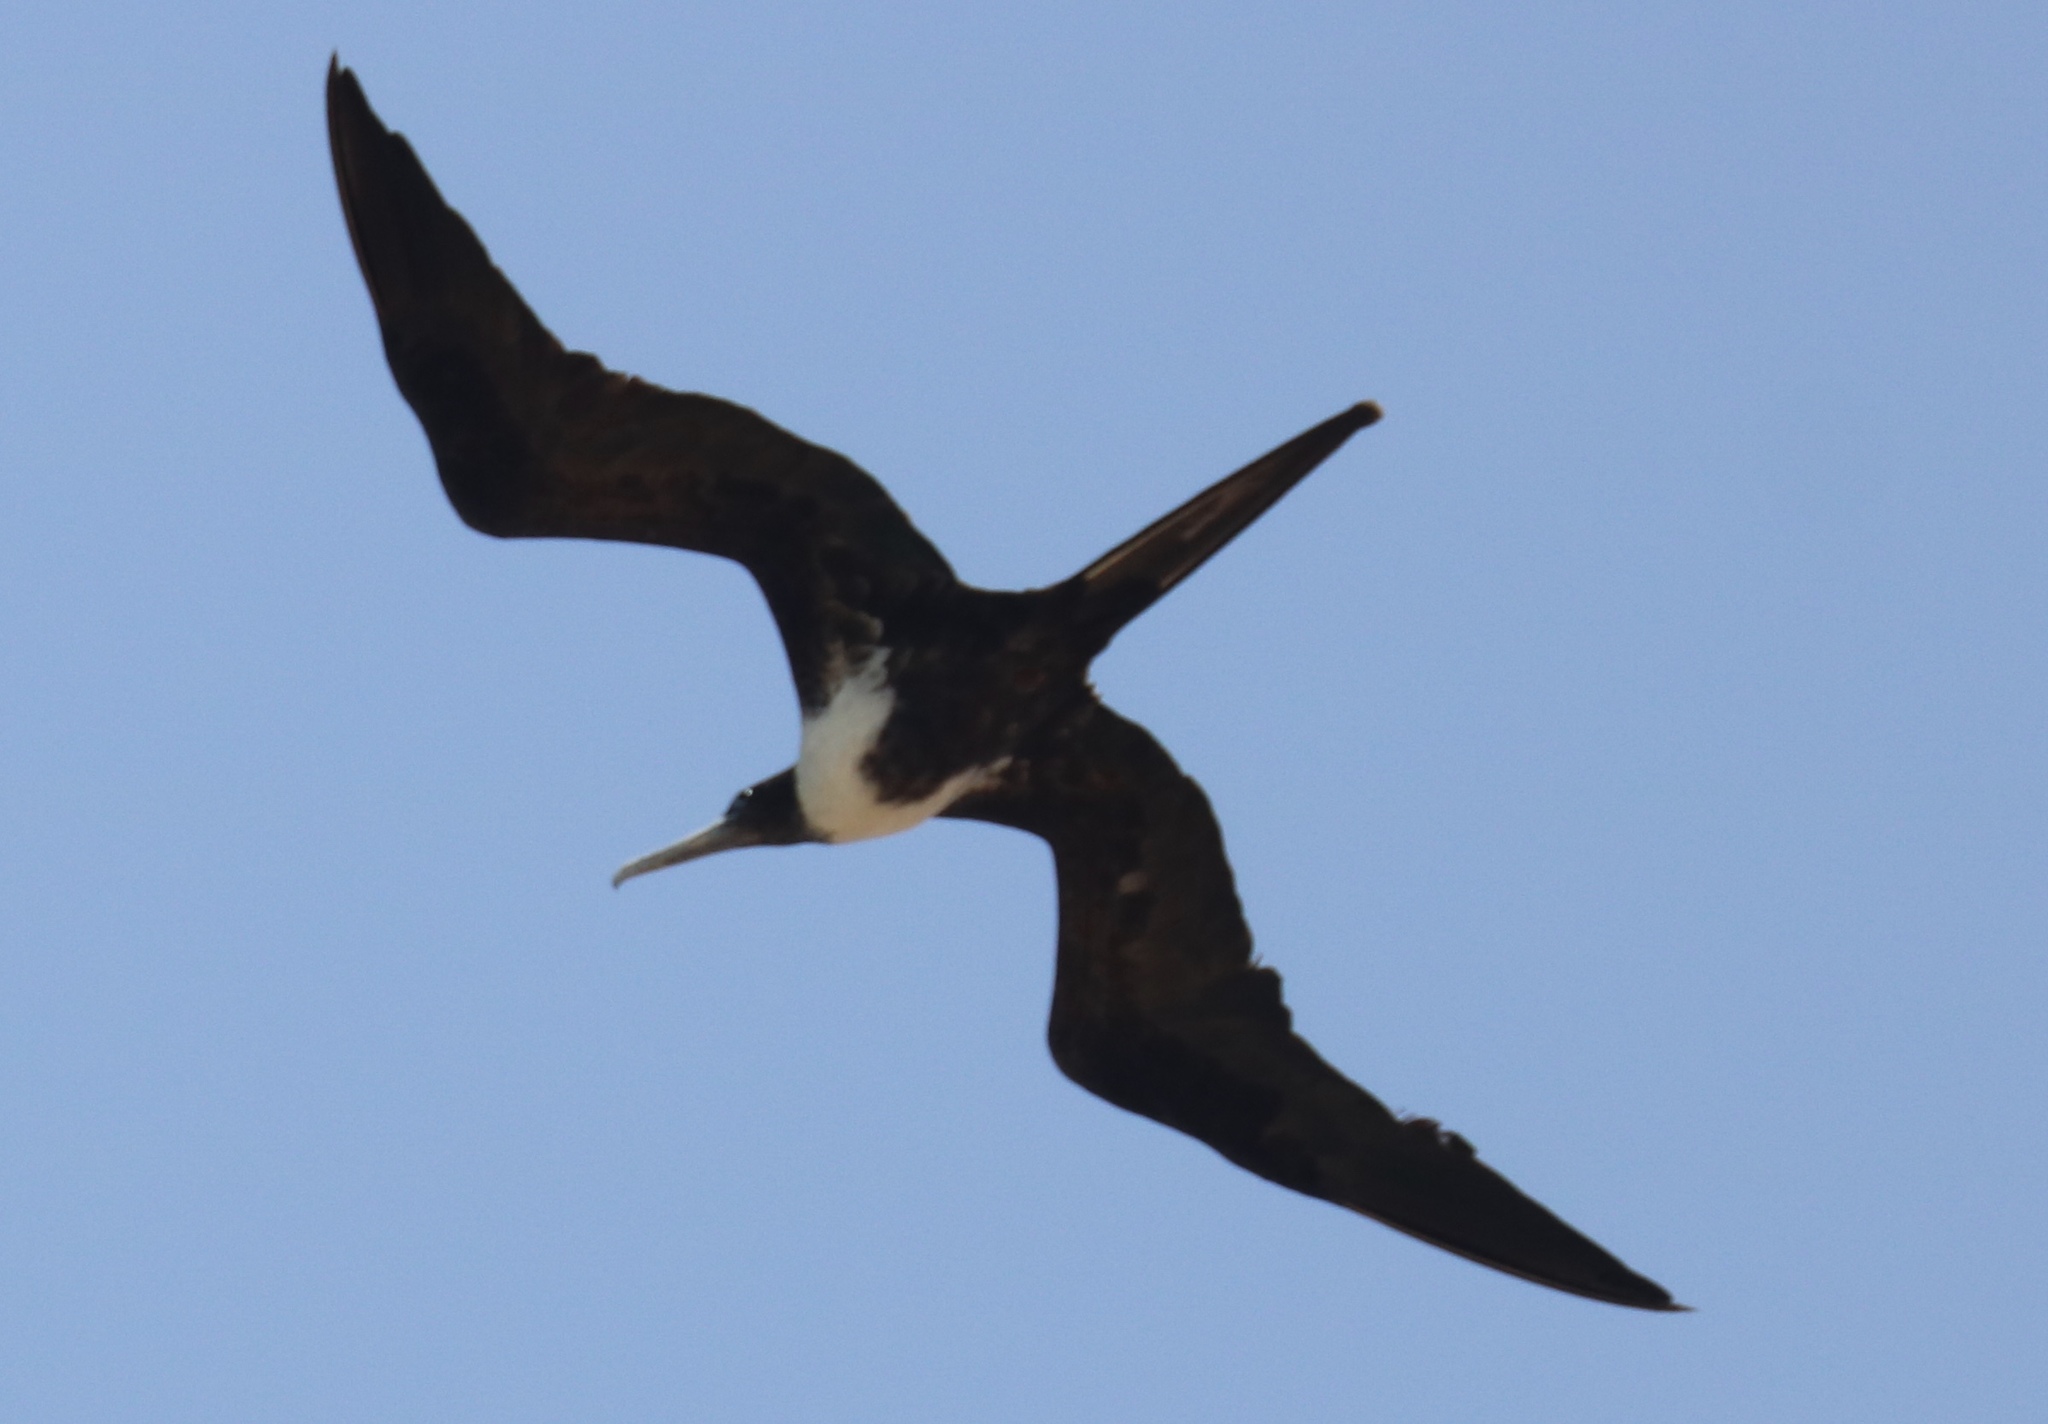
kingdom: Animalia
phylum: Chordata
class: Aves
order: Suliformes
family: Fregatidae
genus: Fregata
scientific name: Fregata magnificens
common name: Magnificent frigatebird
